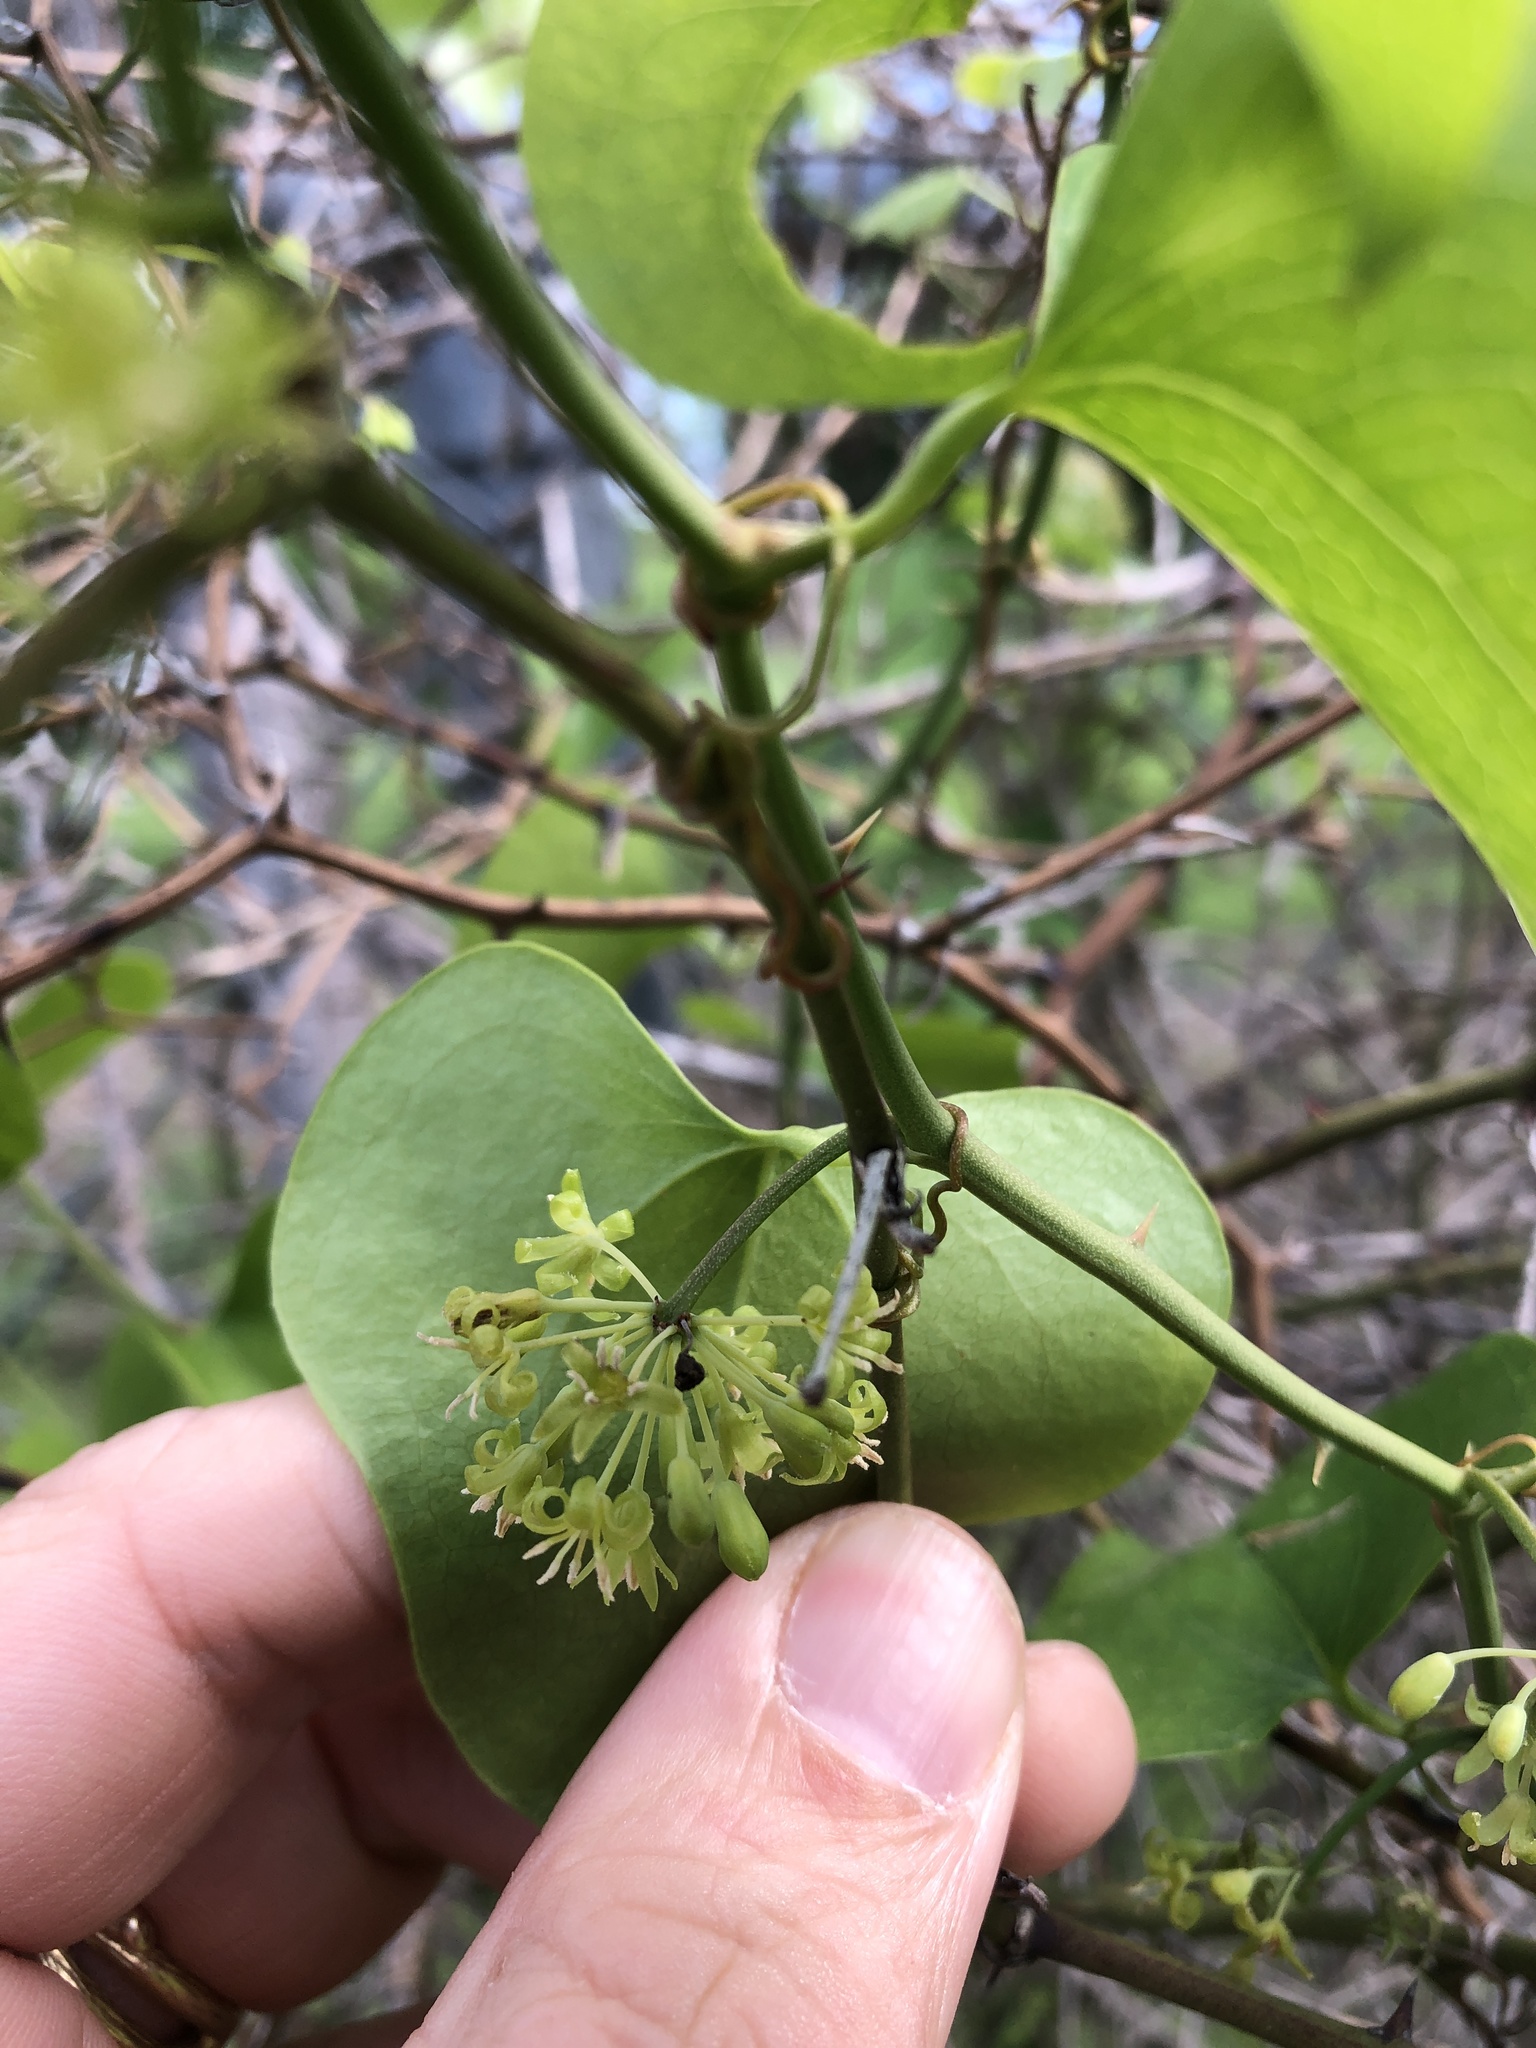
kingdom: Plantae
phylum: Tracheophyta
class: Liliopsida
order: Liliales
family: Smilacaceae
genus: Smilax
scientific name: Smilax bona-nox
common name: Catbrier
